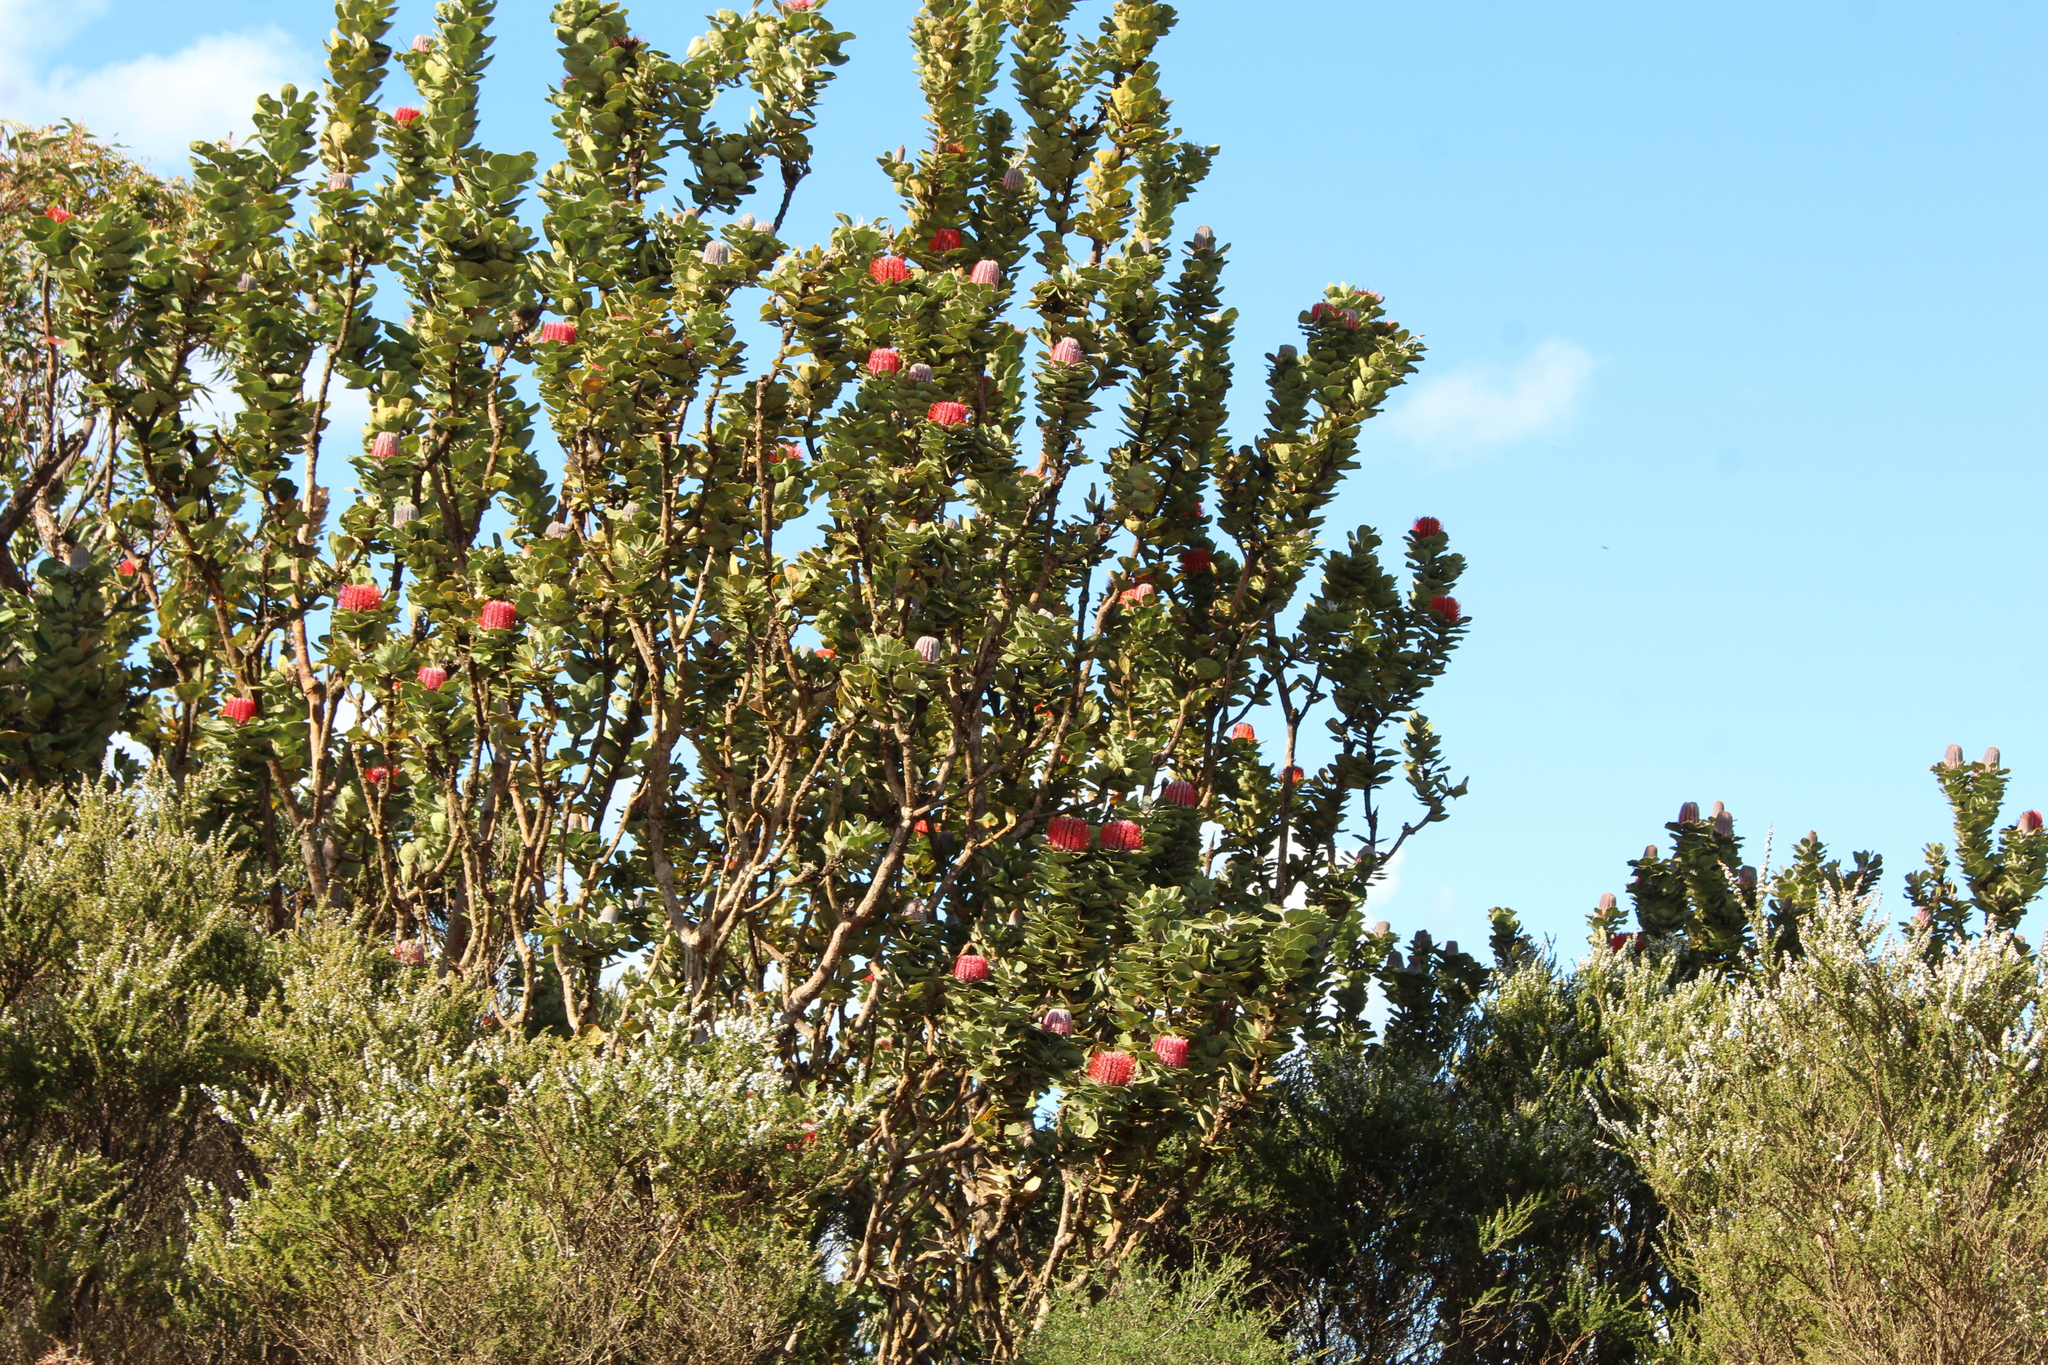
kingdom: Plantae
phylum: Tracheophyta
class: Magnoliopsida
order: Proteales
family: Proteaceae
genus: Banksia
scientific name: Banksia coccinea
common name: Scarlet banksia
